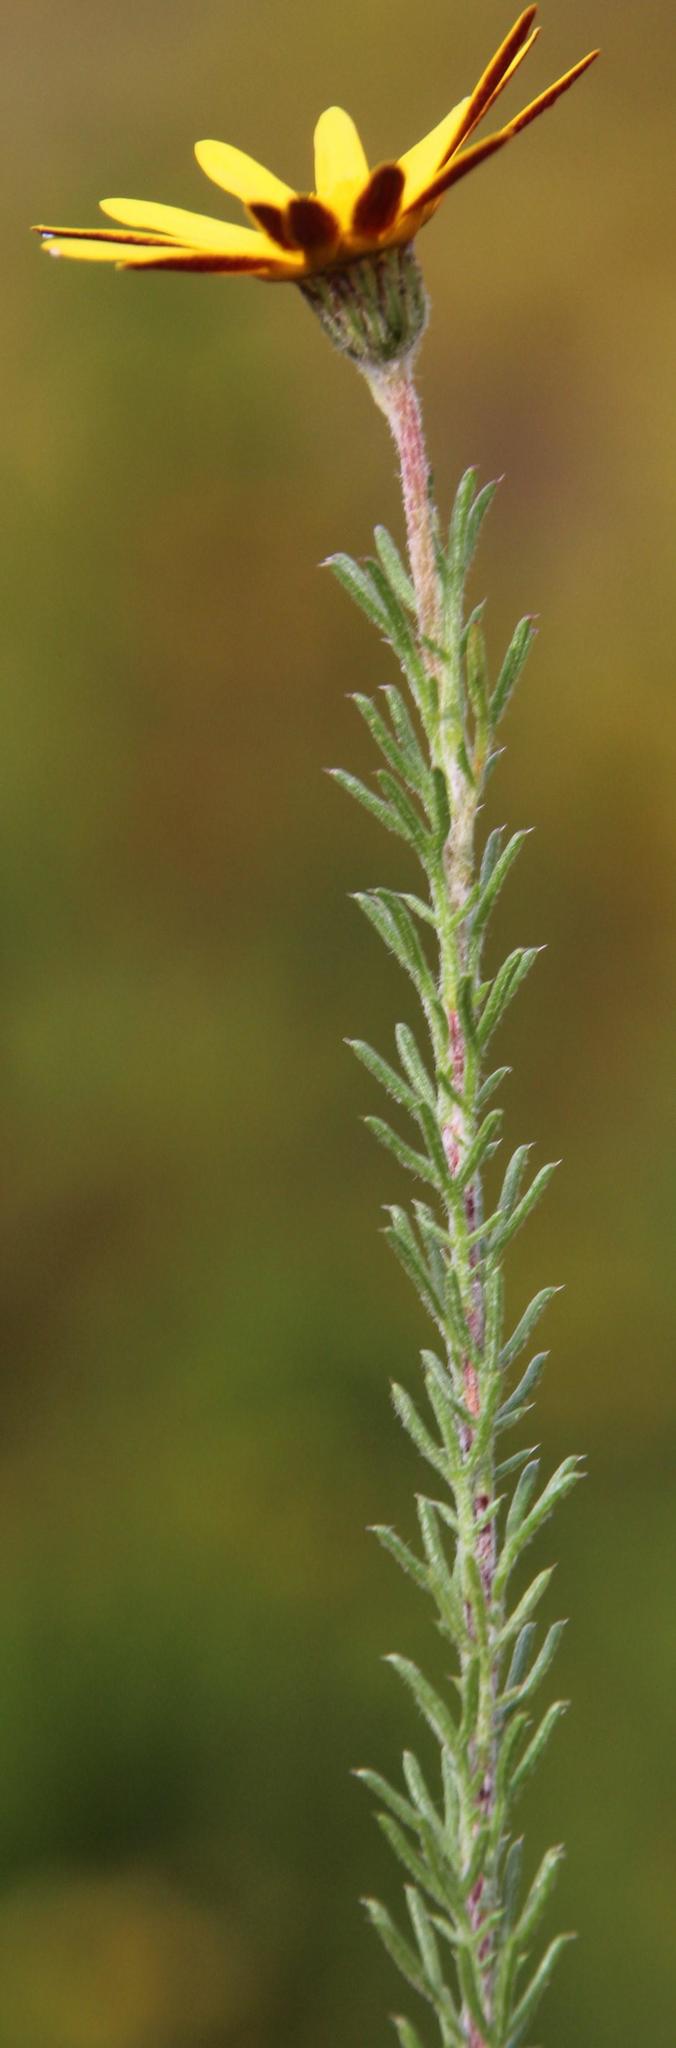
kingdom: Plantae
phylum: Tracheophyta
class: Magnoliopsida
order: Asterales
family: Asteraceae
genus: Ursinia
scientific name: Ursinia hispida
